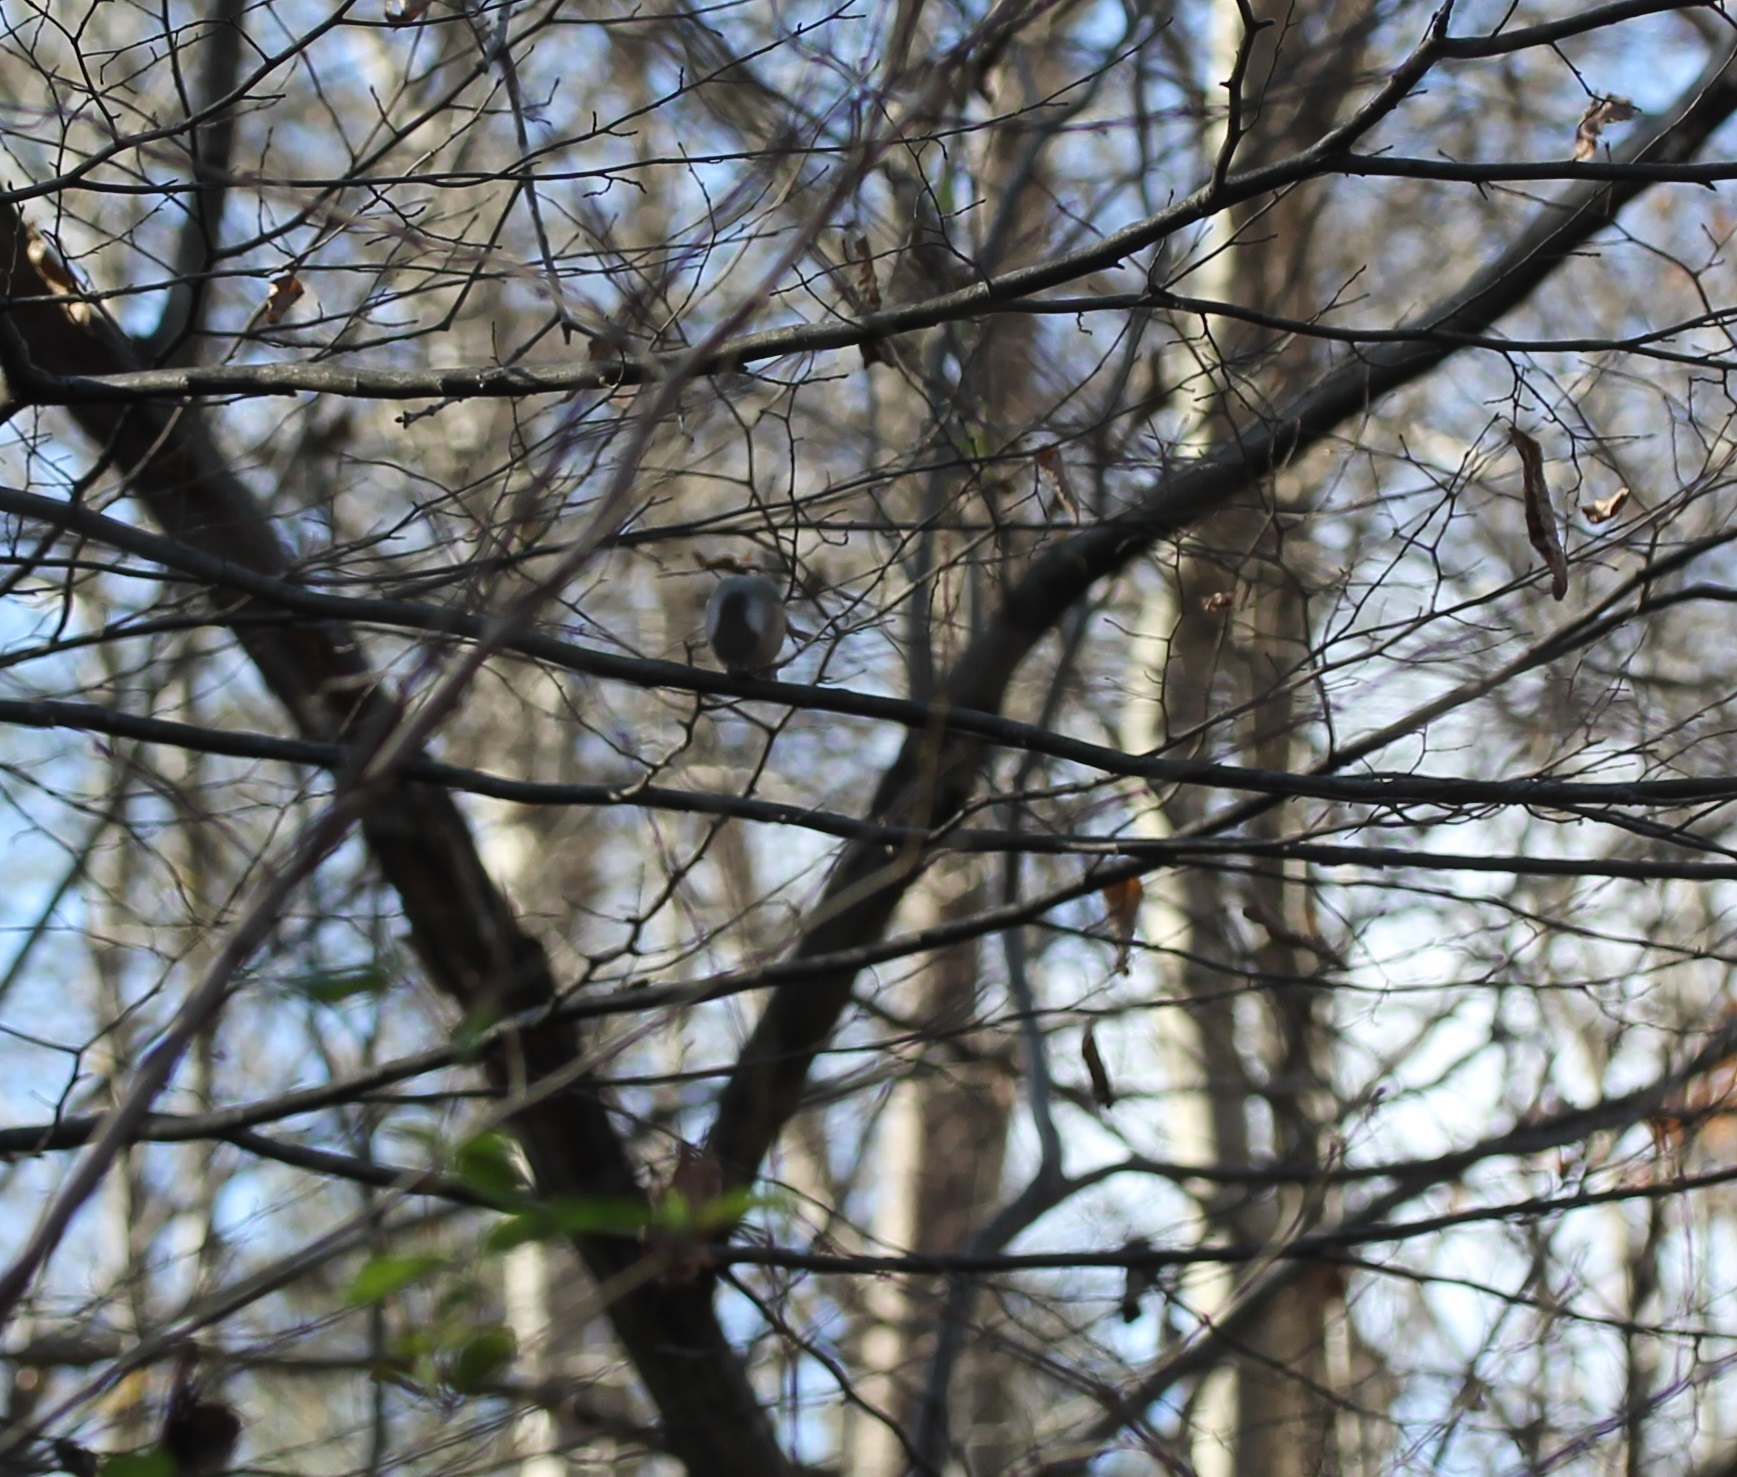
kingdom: Animalia
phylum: Chordata
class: Aves
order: Passeriformes
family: Paridae
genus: Poecile
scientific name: Poecile carolinensis
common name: Carolina chickadee
